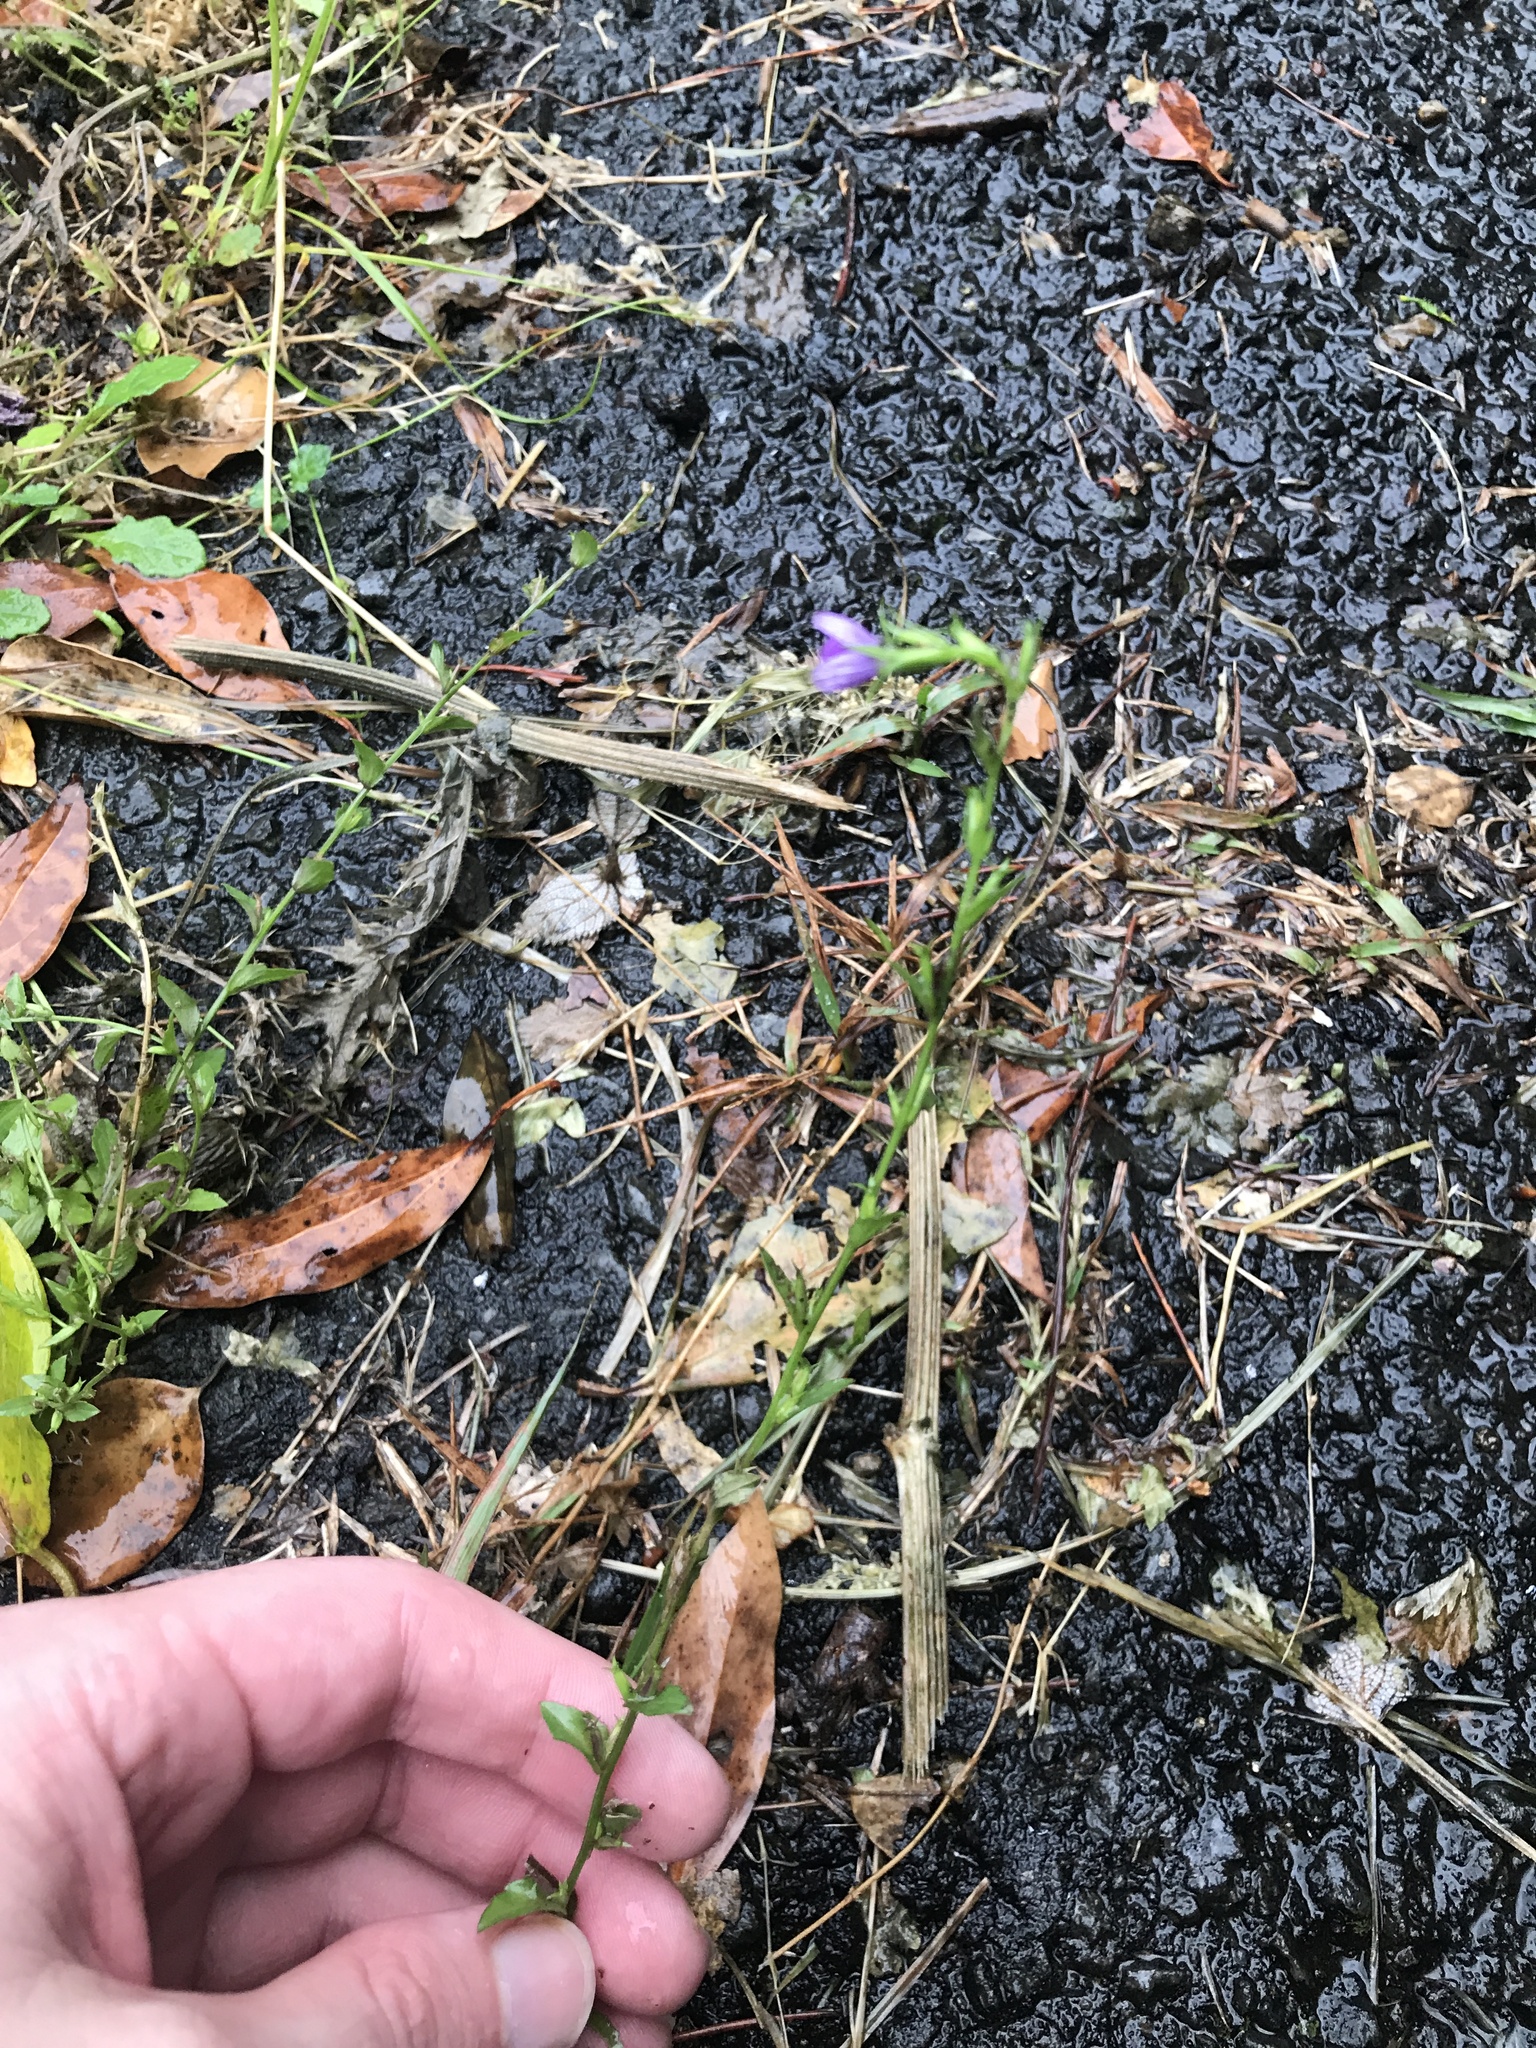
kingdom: Plantae
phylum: Tracheophyta
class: Magnoliopsida
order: Asterales
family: Campanulaceae
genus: Triodanis
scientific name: Triodanis biflora
